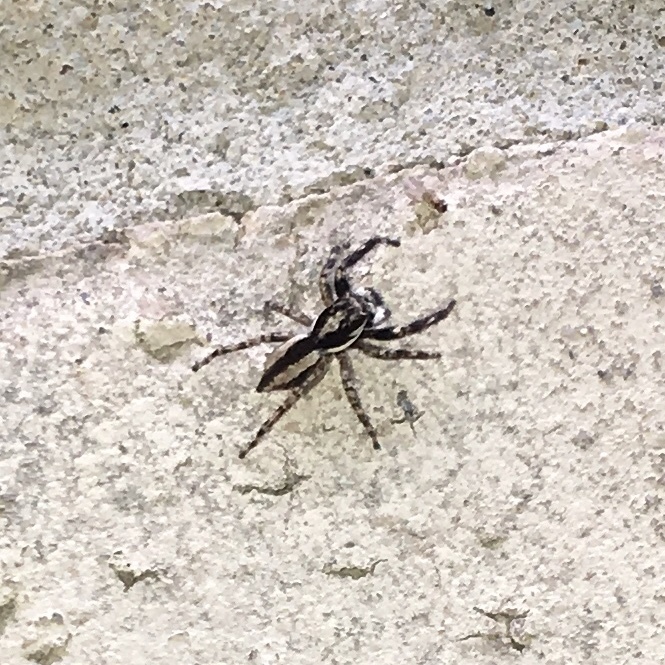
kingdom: Animalia
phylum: Arthropoda
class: Arachnida
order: Araneae
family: Salticidae
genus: Menemerus
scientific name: Menemerus bivittatus
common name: Gray wall jumper
